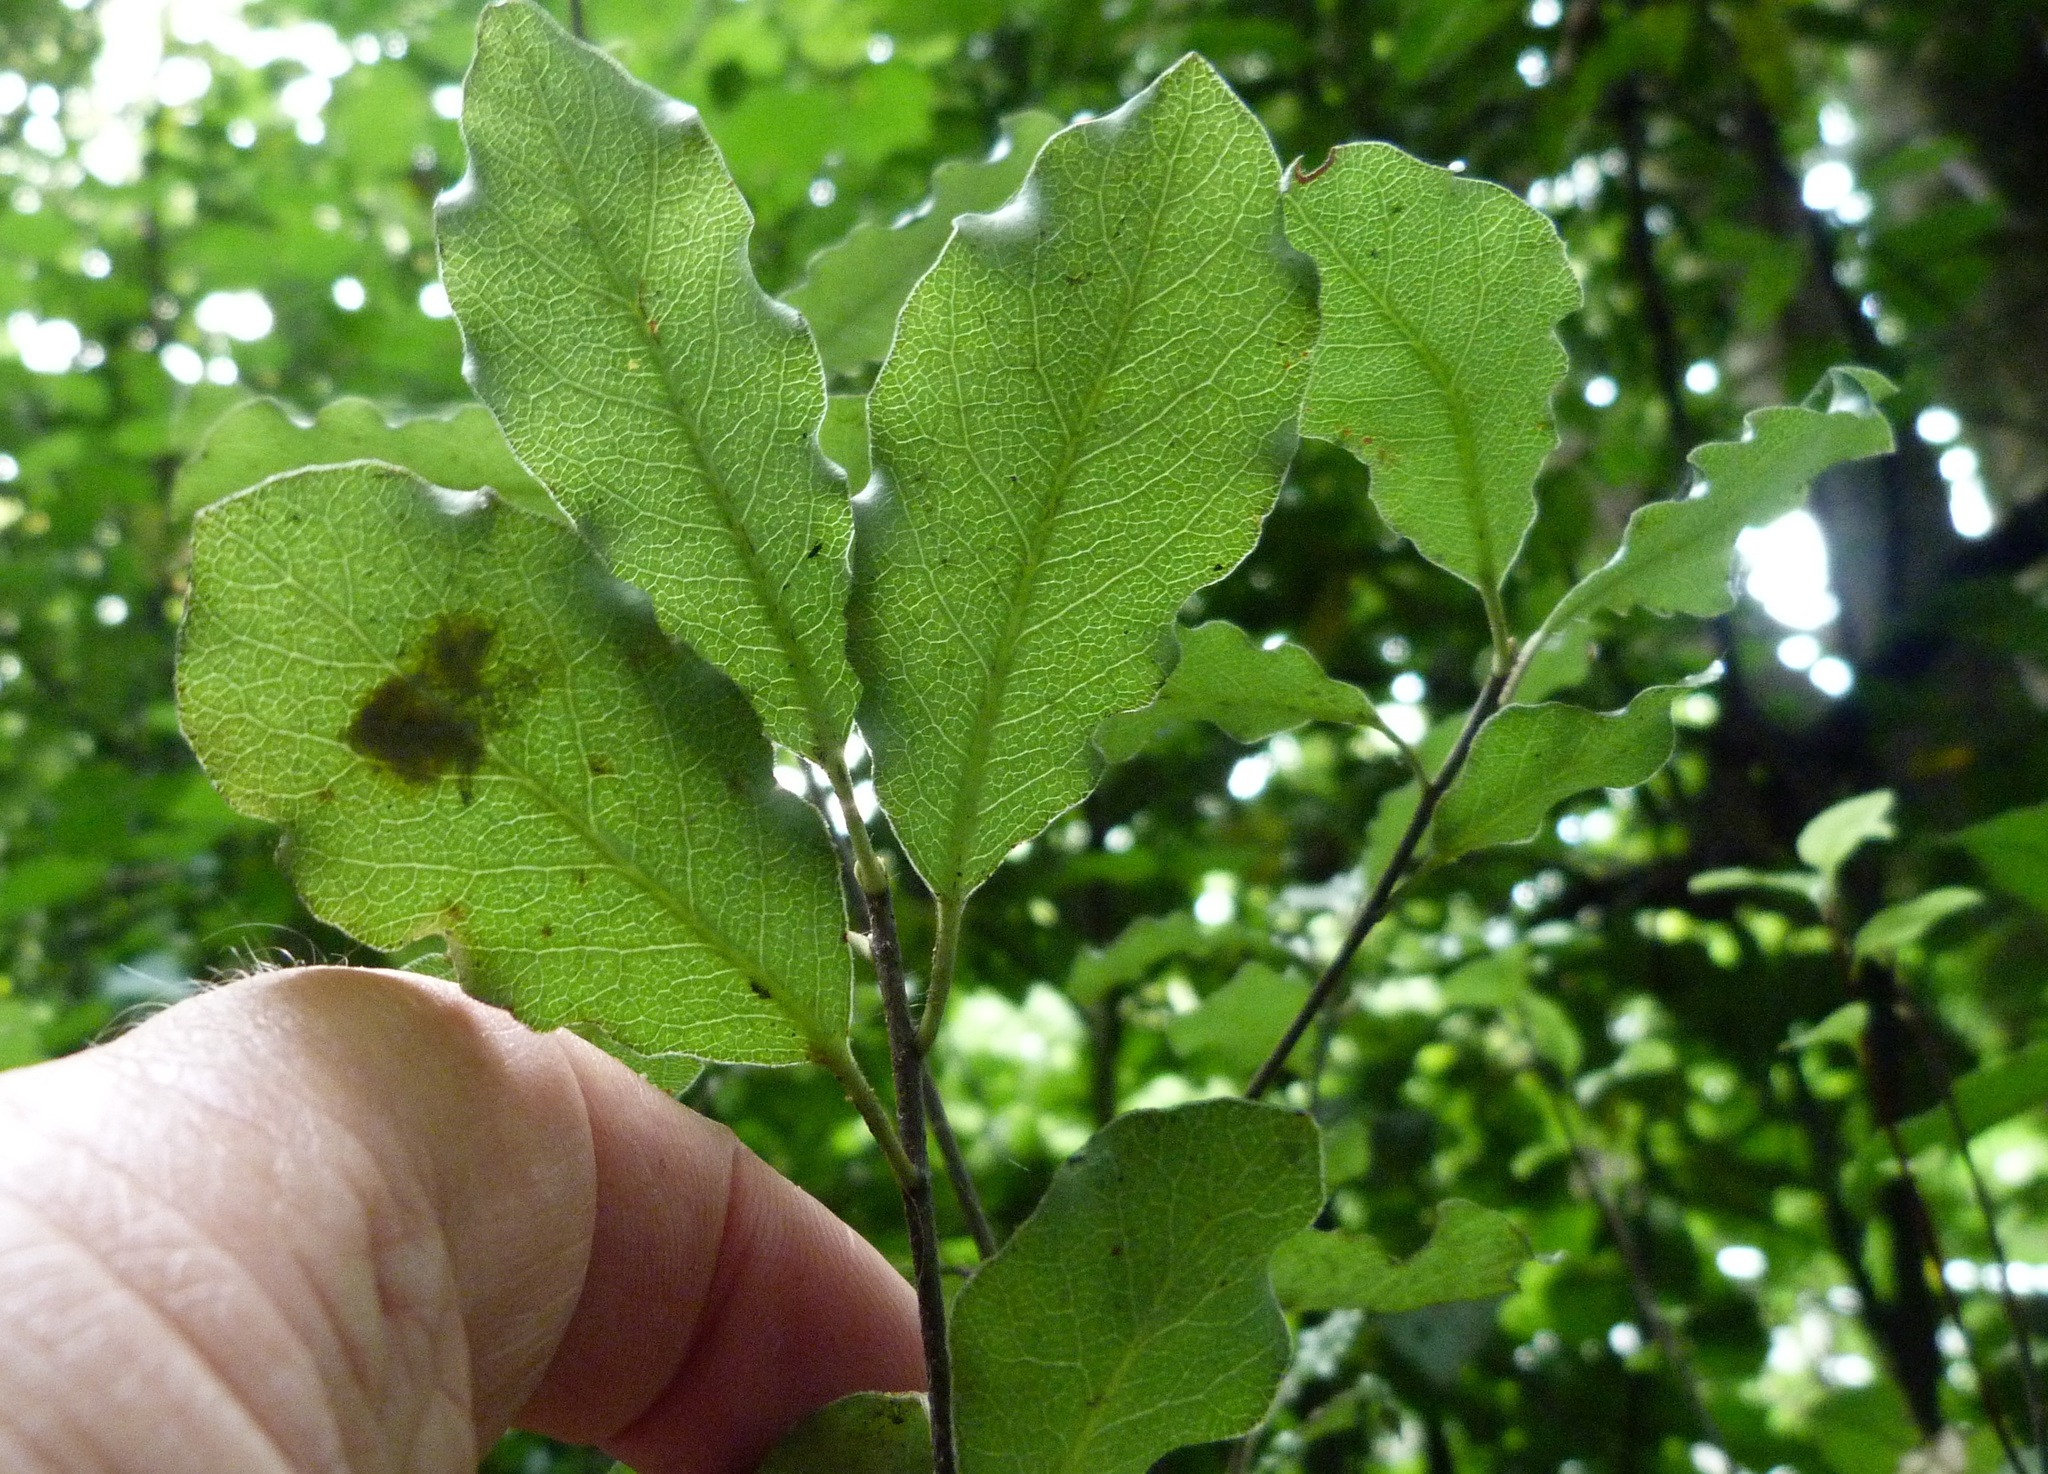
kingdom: Plantae
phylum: Tracheophyta
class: Magnoliopsida
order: Apiales
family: Pittosporaceae
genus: Pittosporum
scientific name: Pittosporum tenuifolium
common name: Kohuhu
